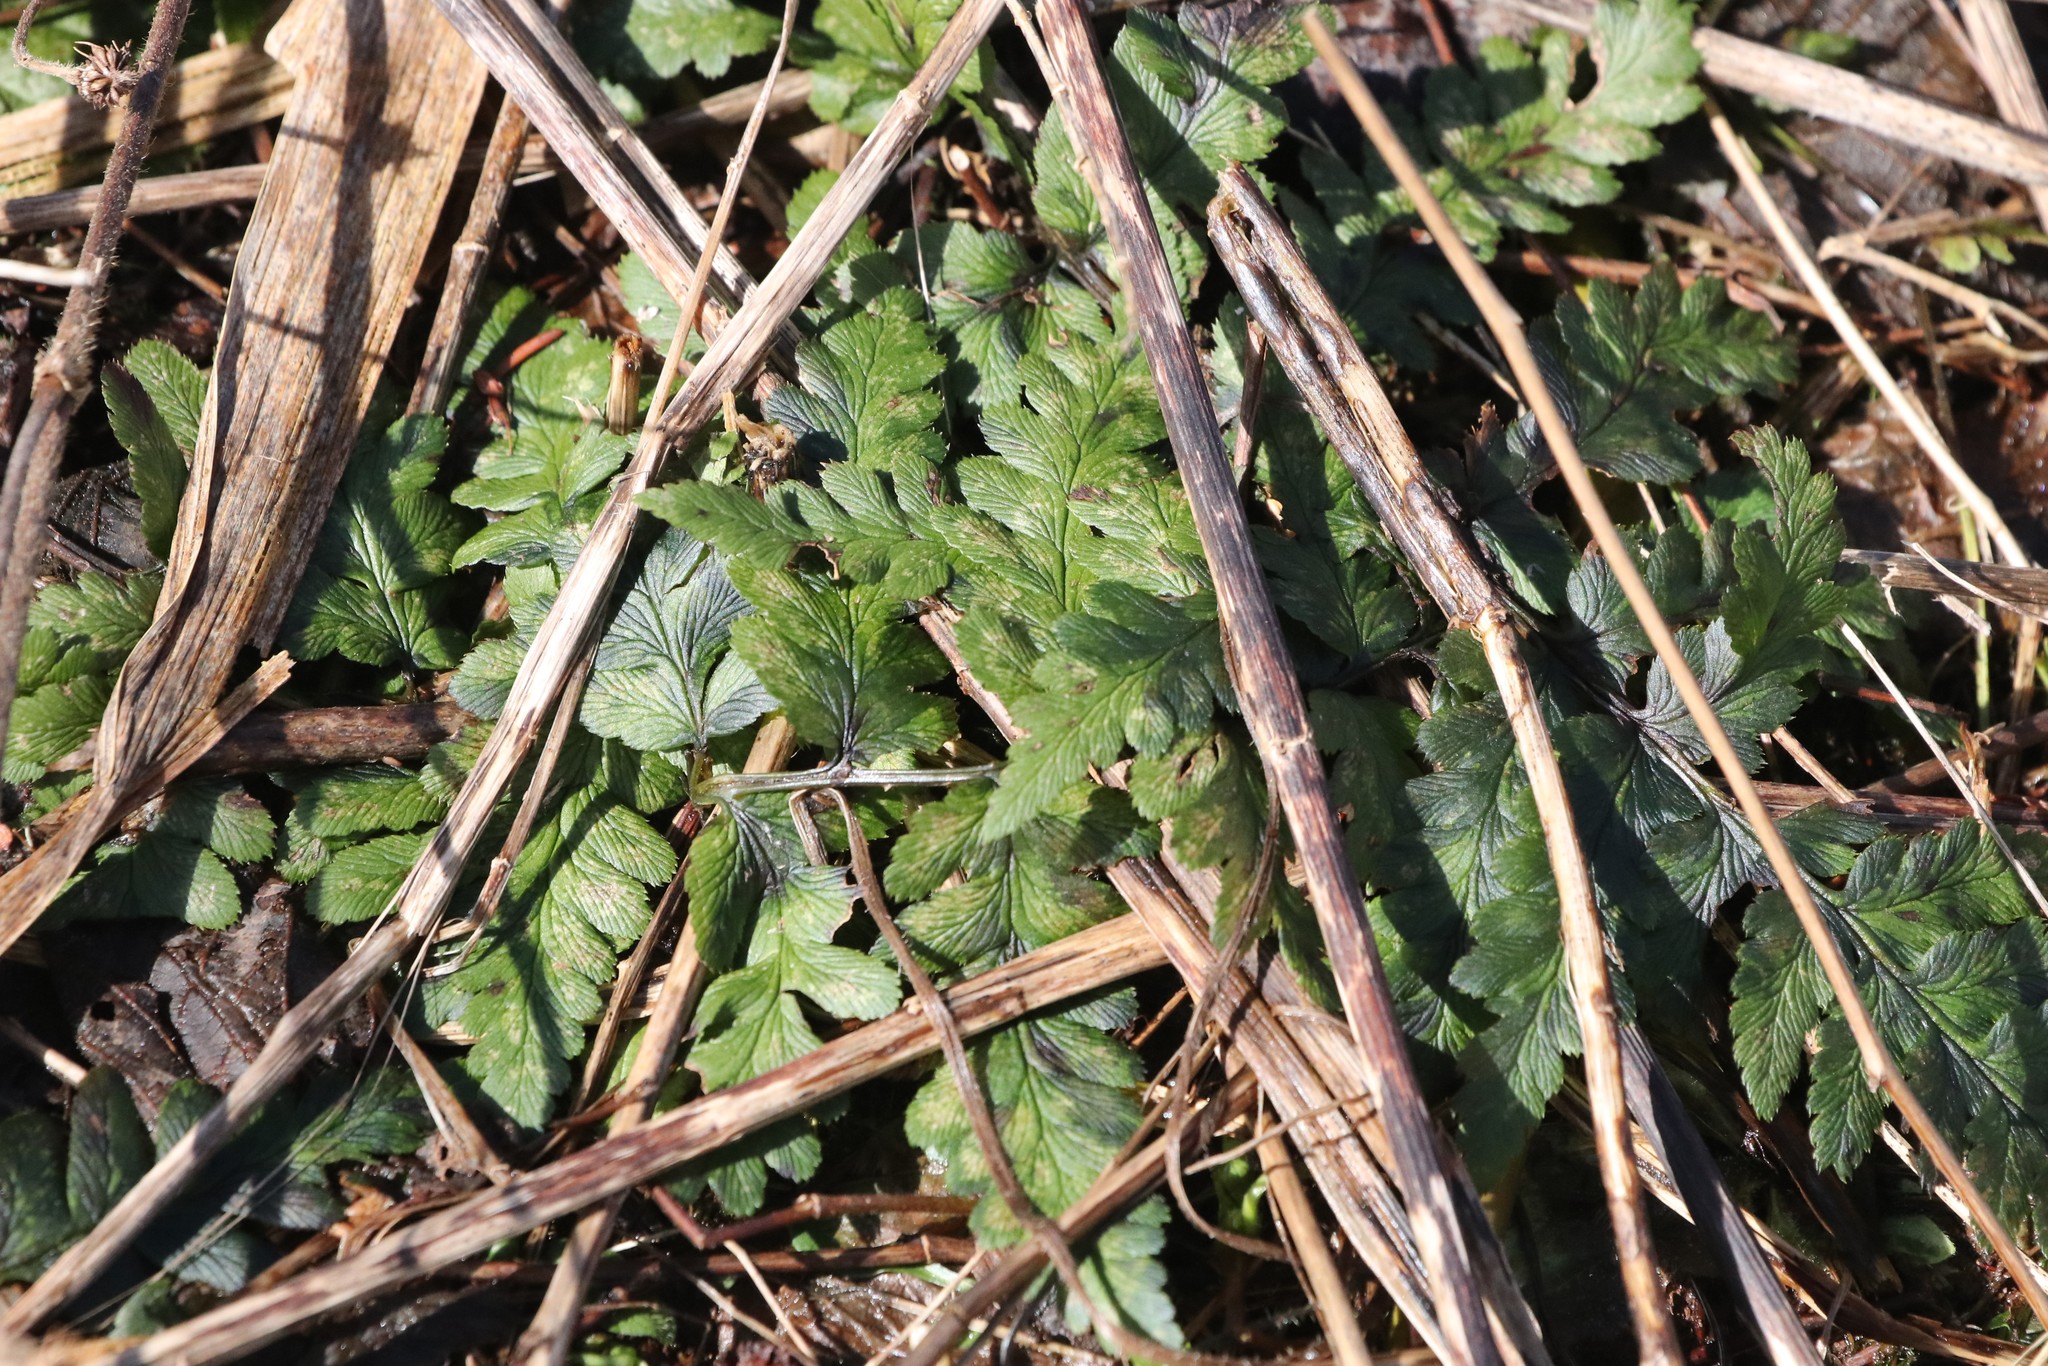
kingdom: Plantae
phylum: Tracheophyta
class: Polypodiopsida
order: Polypodiales
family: Dryopteridaceae
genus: Dryopteris
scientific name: Dryopteris cristata
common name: Crested wood fern
